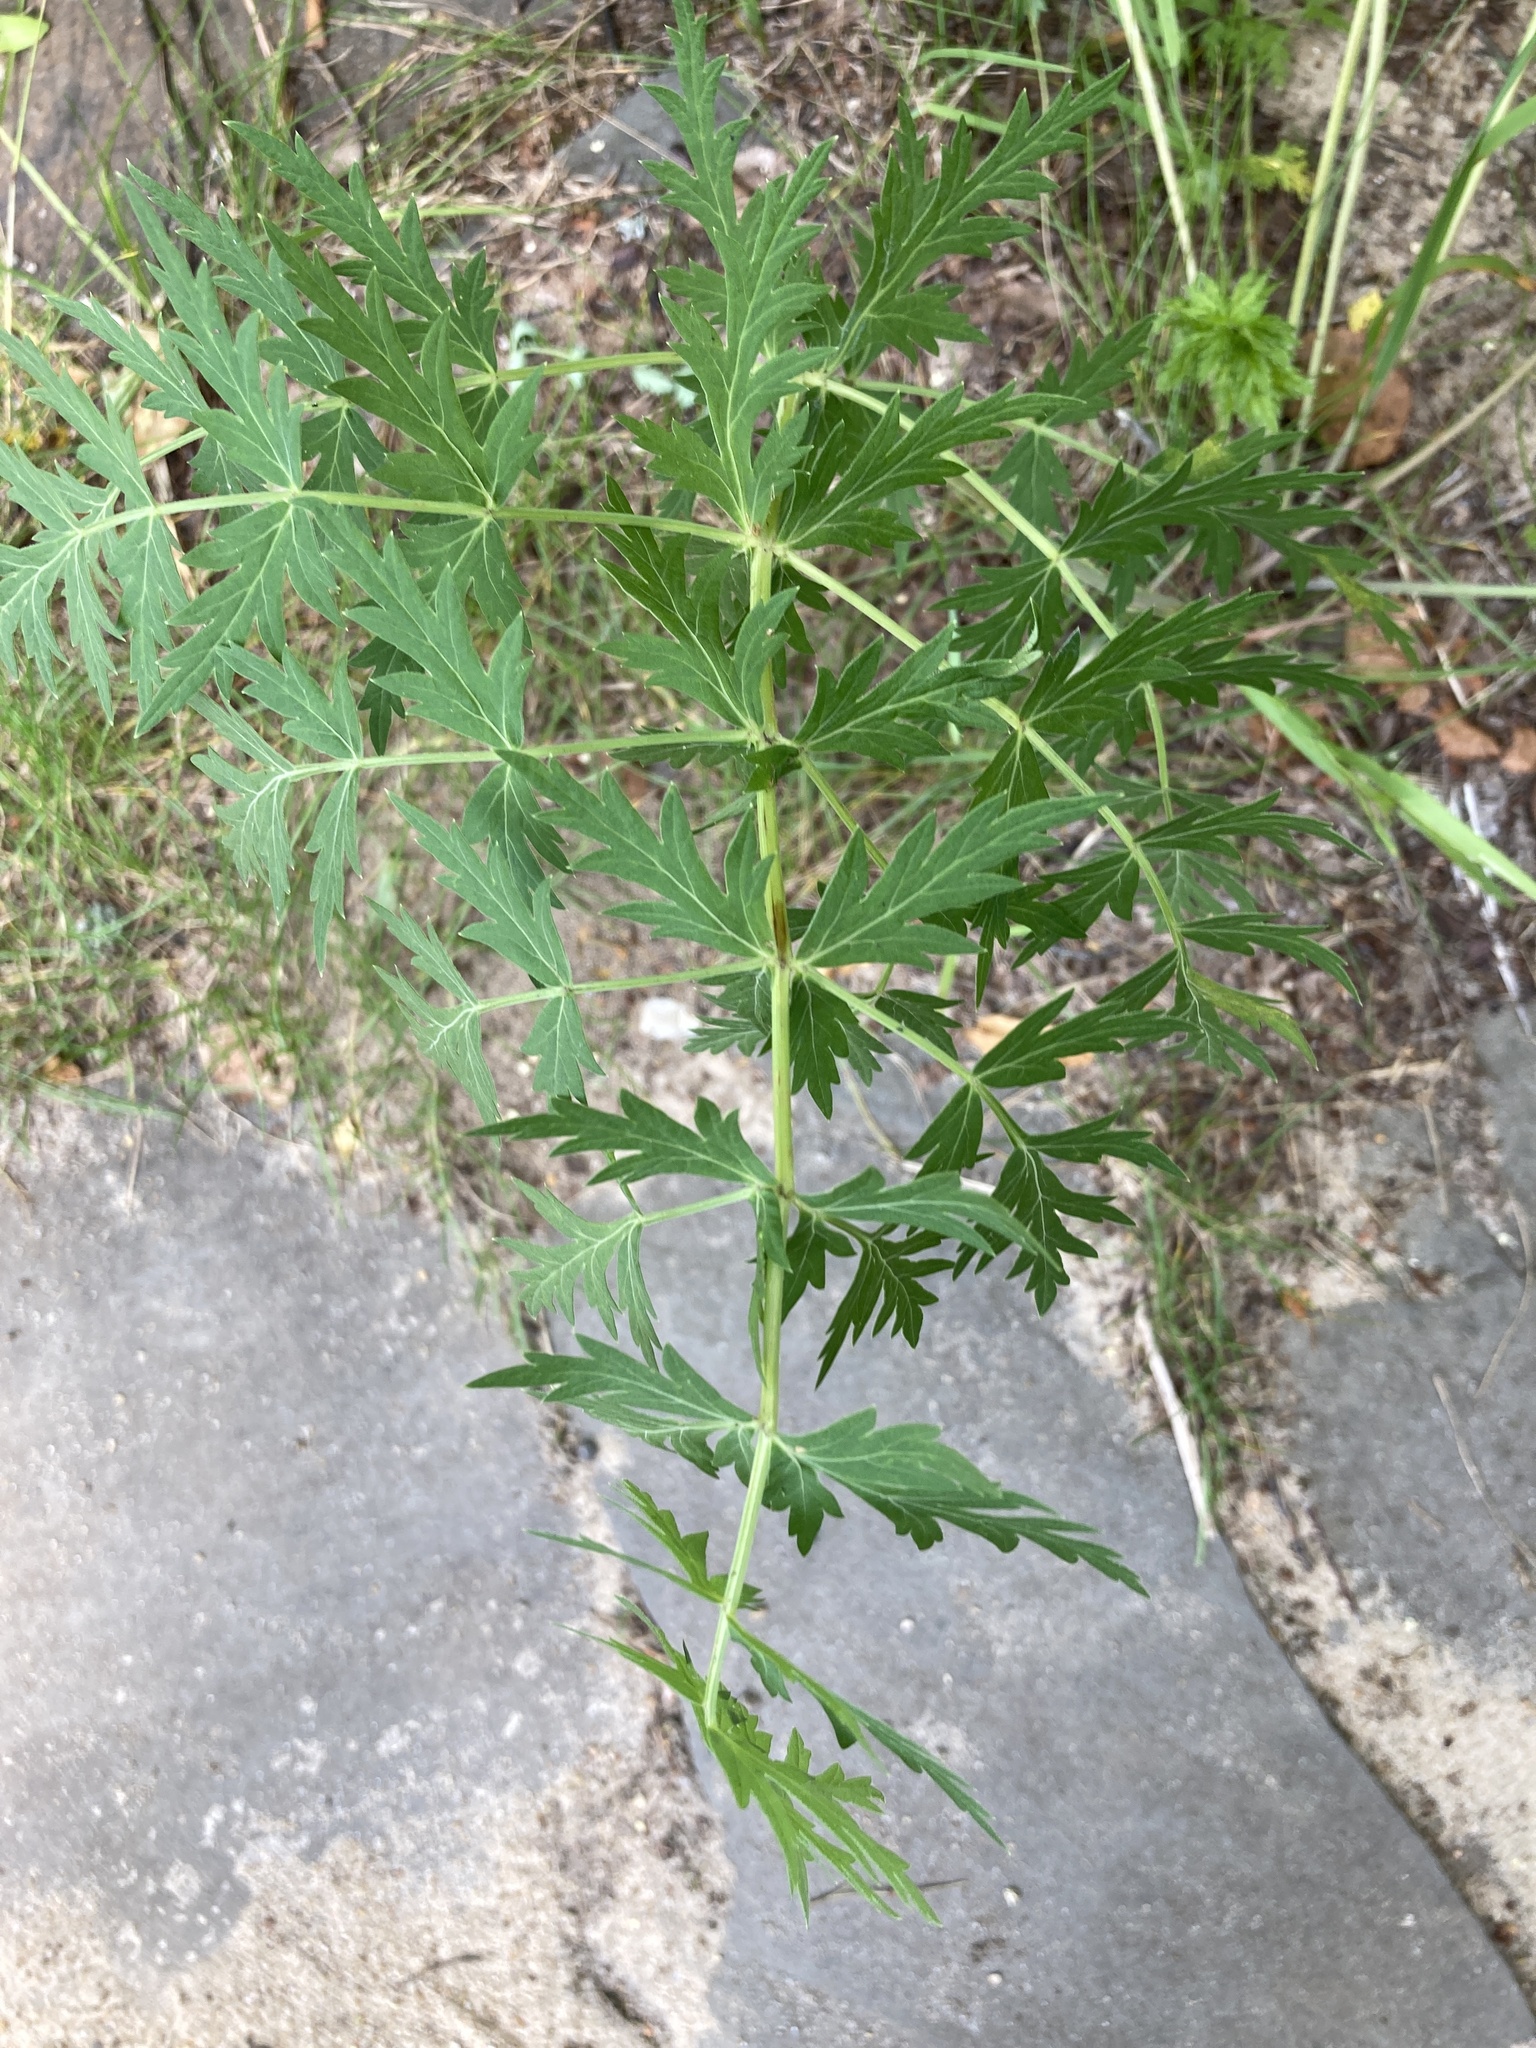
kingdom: Plantae
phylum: Tracheophyta
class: Magnoliopsida
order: Apiales
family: Apiaceae
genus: Seseli
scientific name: Seseli libanotis
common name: Mooncarrot
